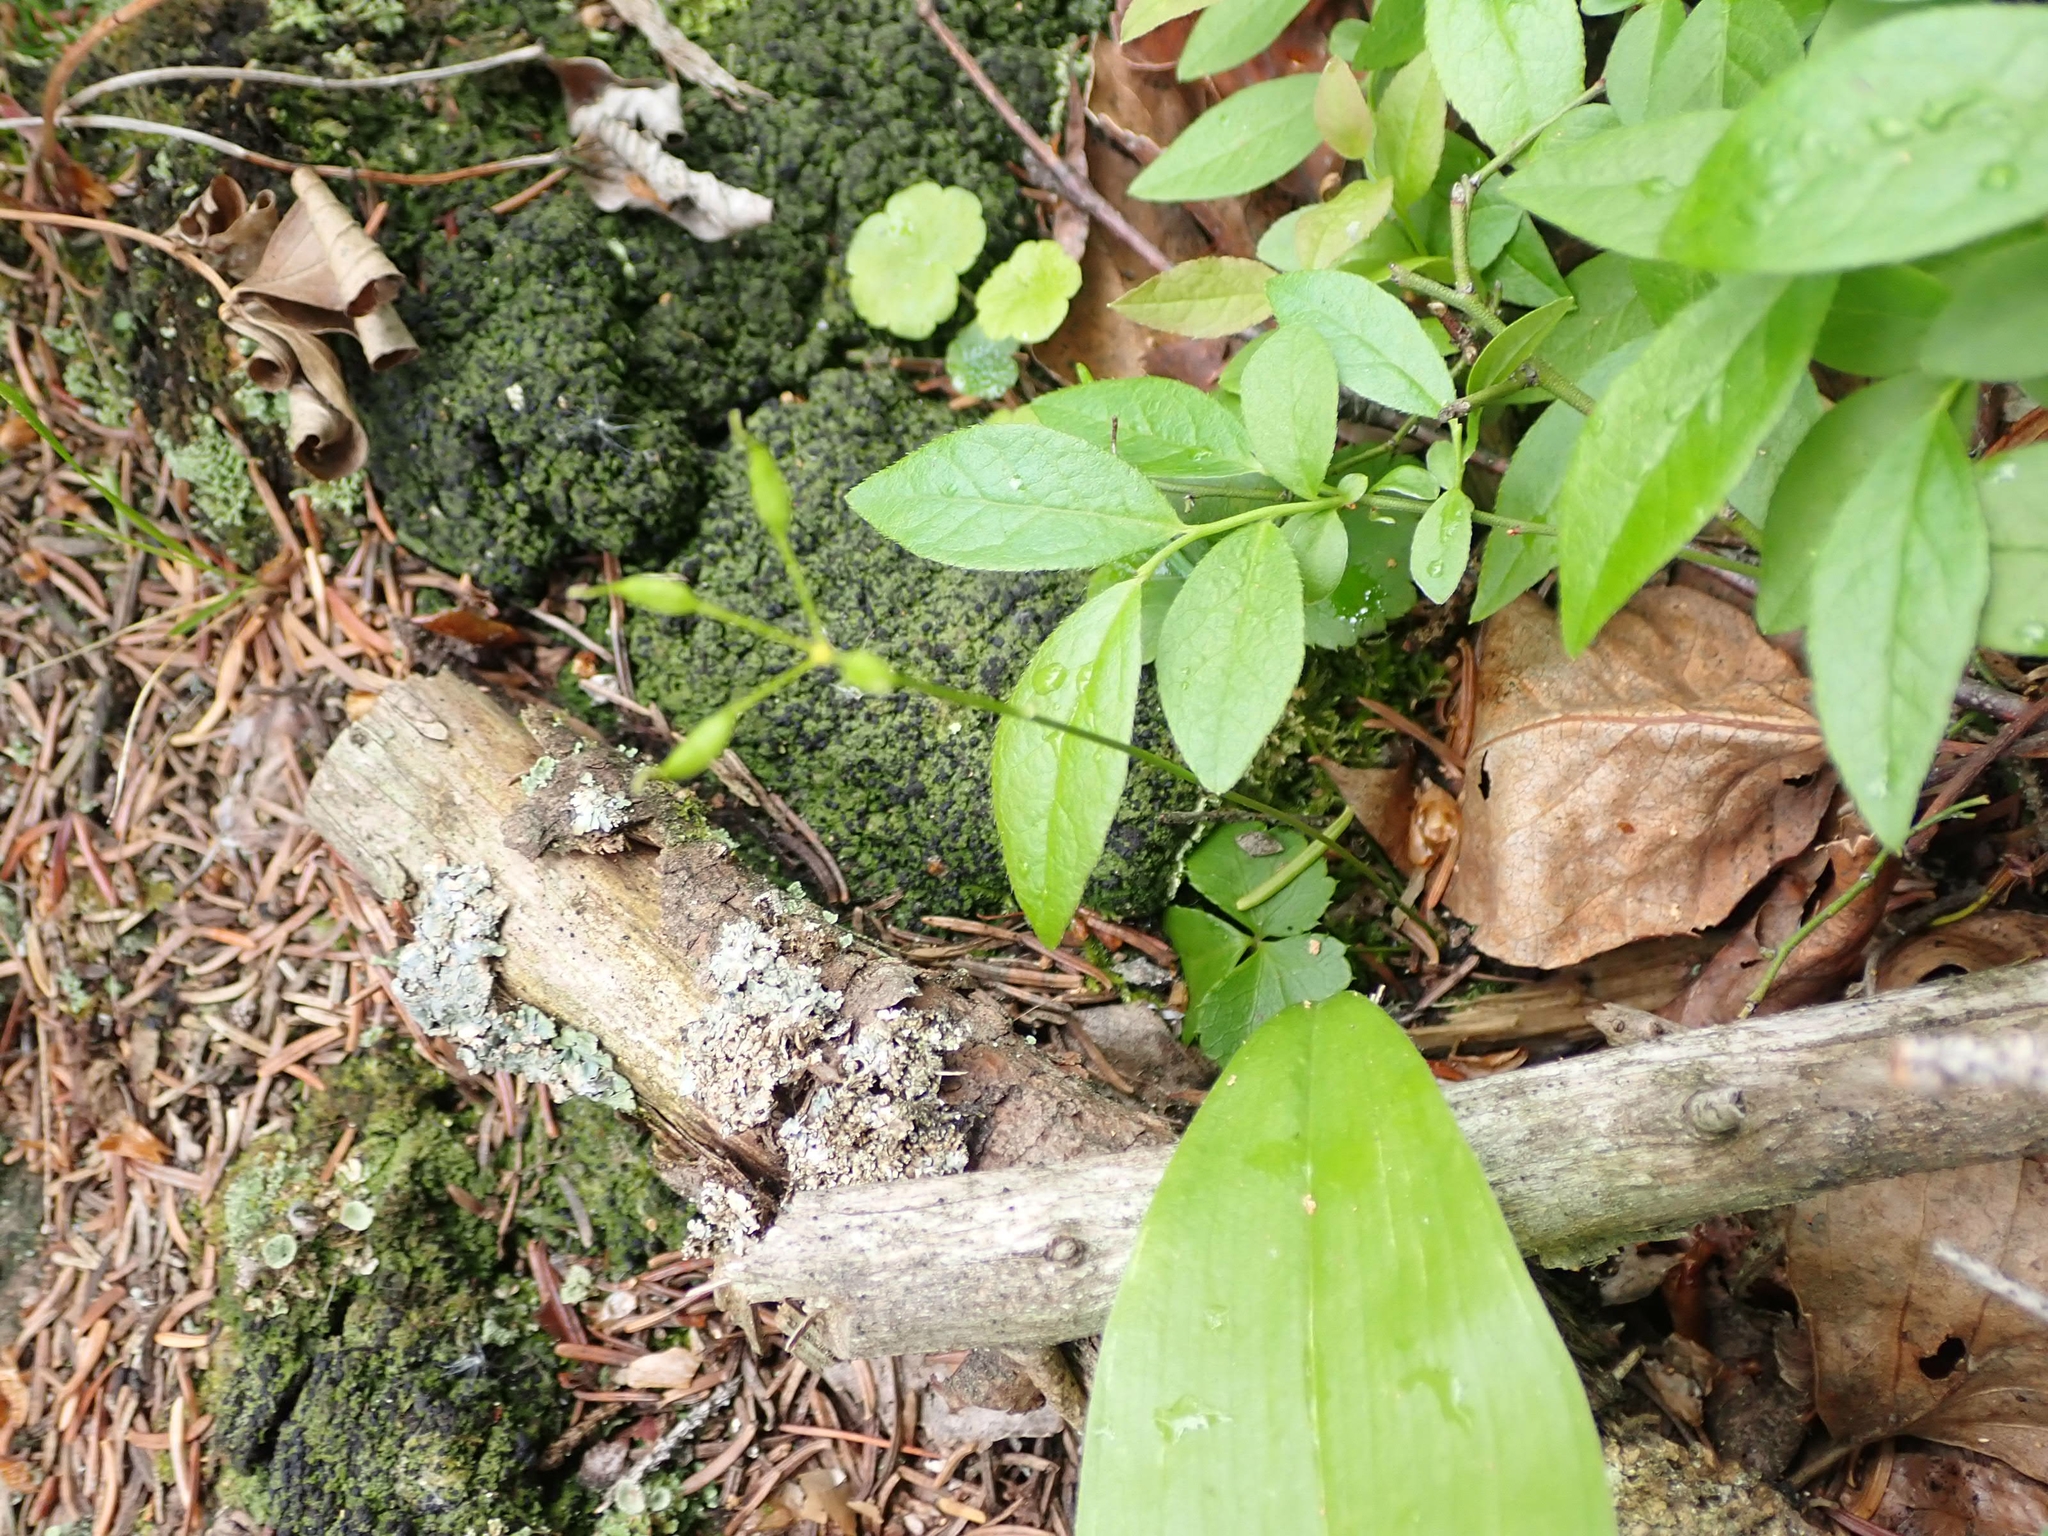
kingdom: Plantae
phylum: Tracheophyta
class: Magnoliopsida
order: Ranunculales
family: Ranunculaceae
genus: Coptis
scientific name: Coptis trifolia
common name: Canker-root
